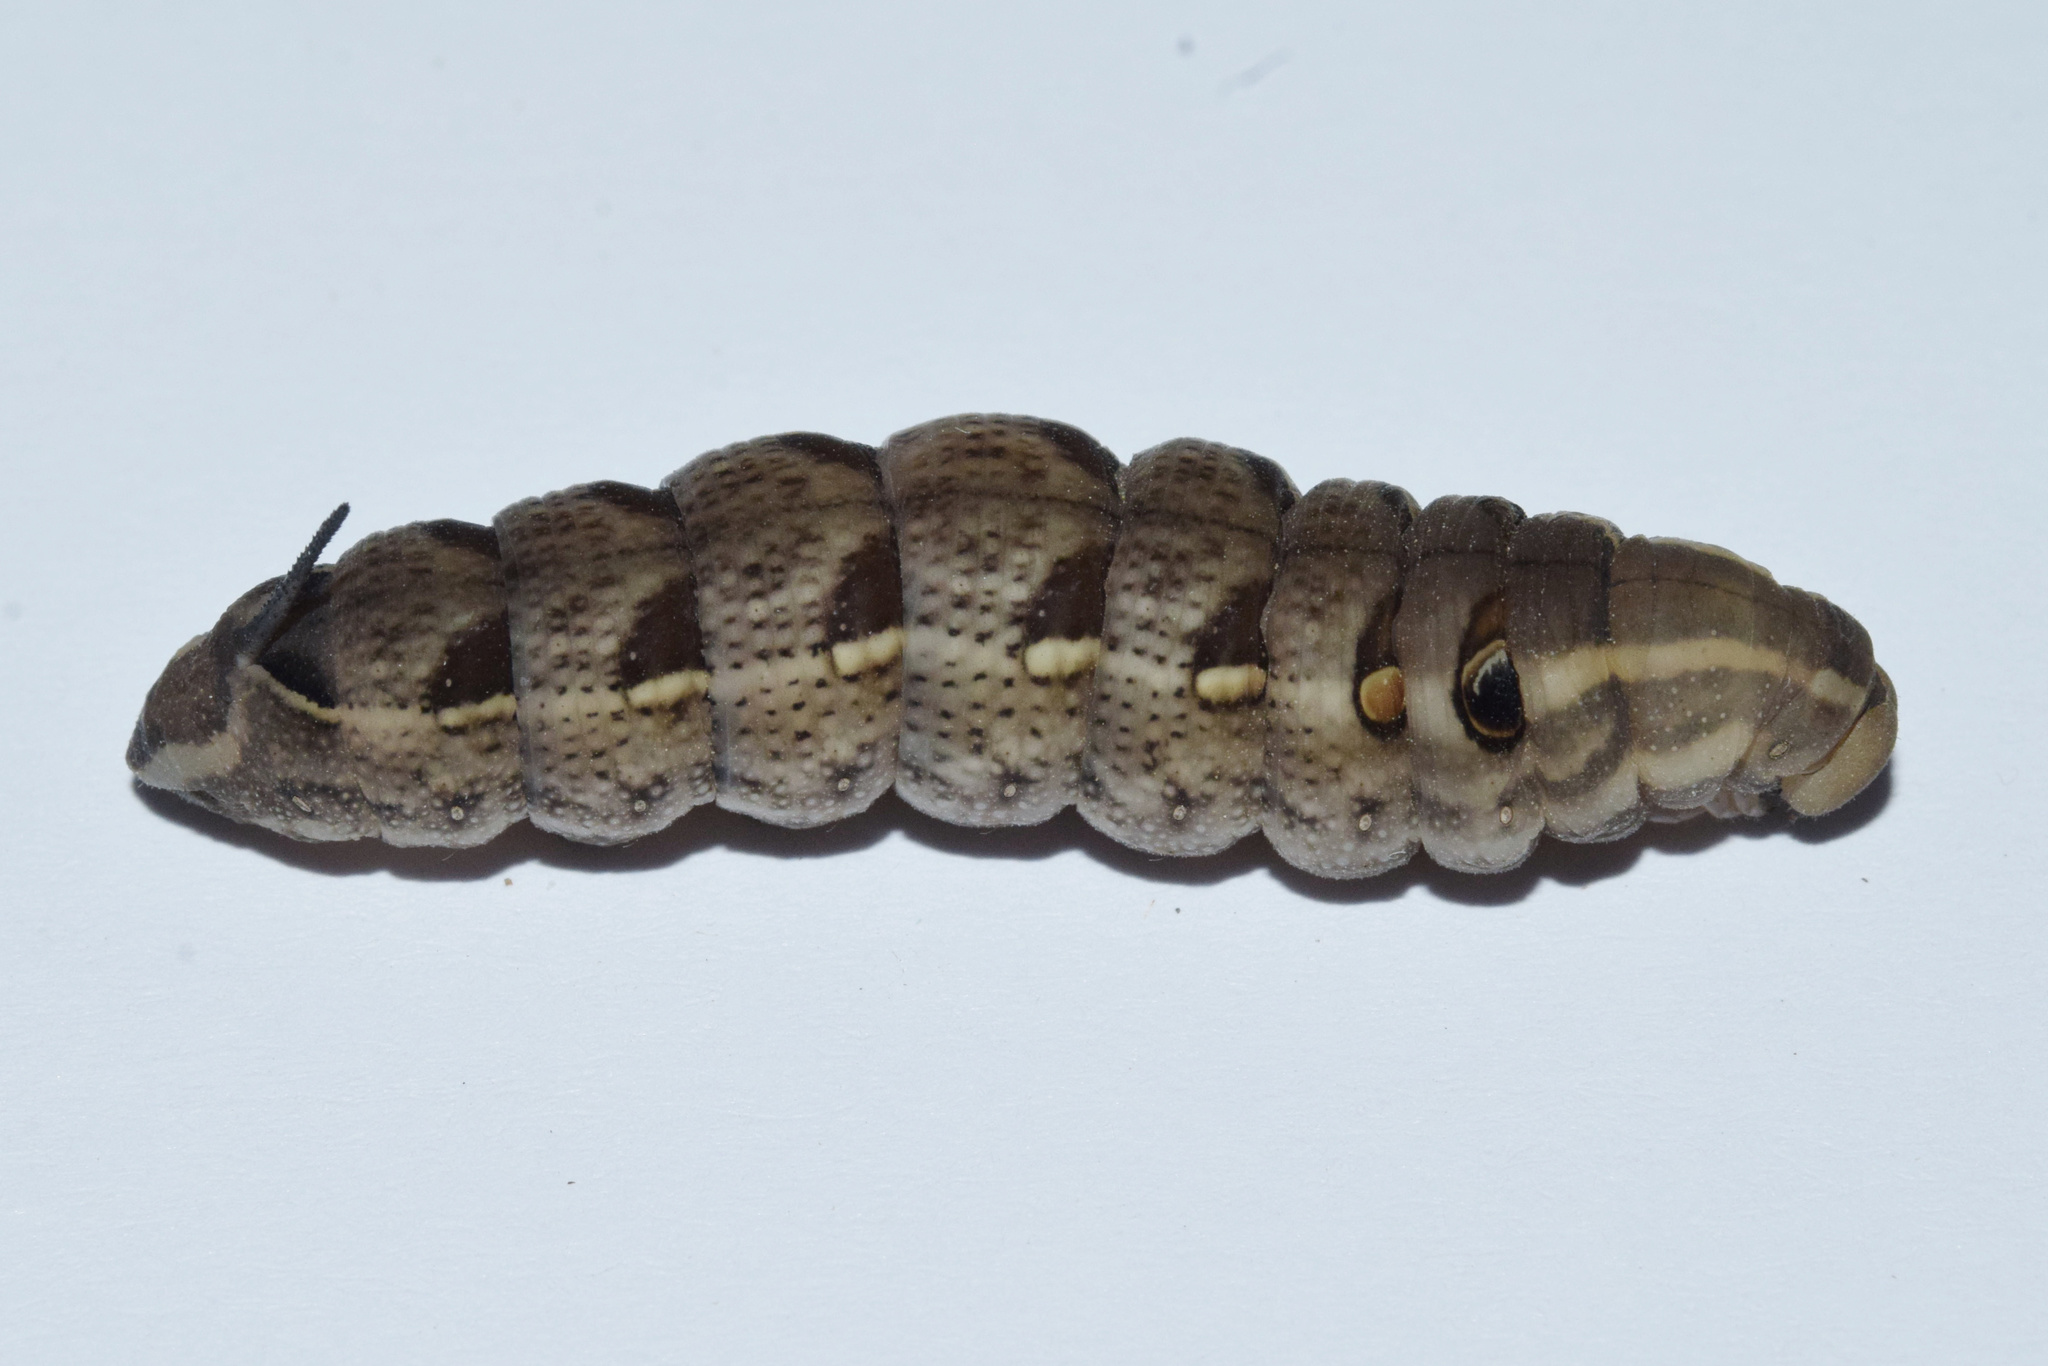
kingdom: Animalia
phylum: Arthropoda
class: Insecta
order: Lepidoptera
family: Sphingidae
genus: Basiothia
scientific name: Basiothia medea
